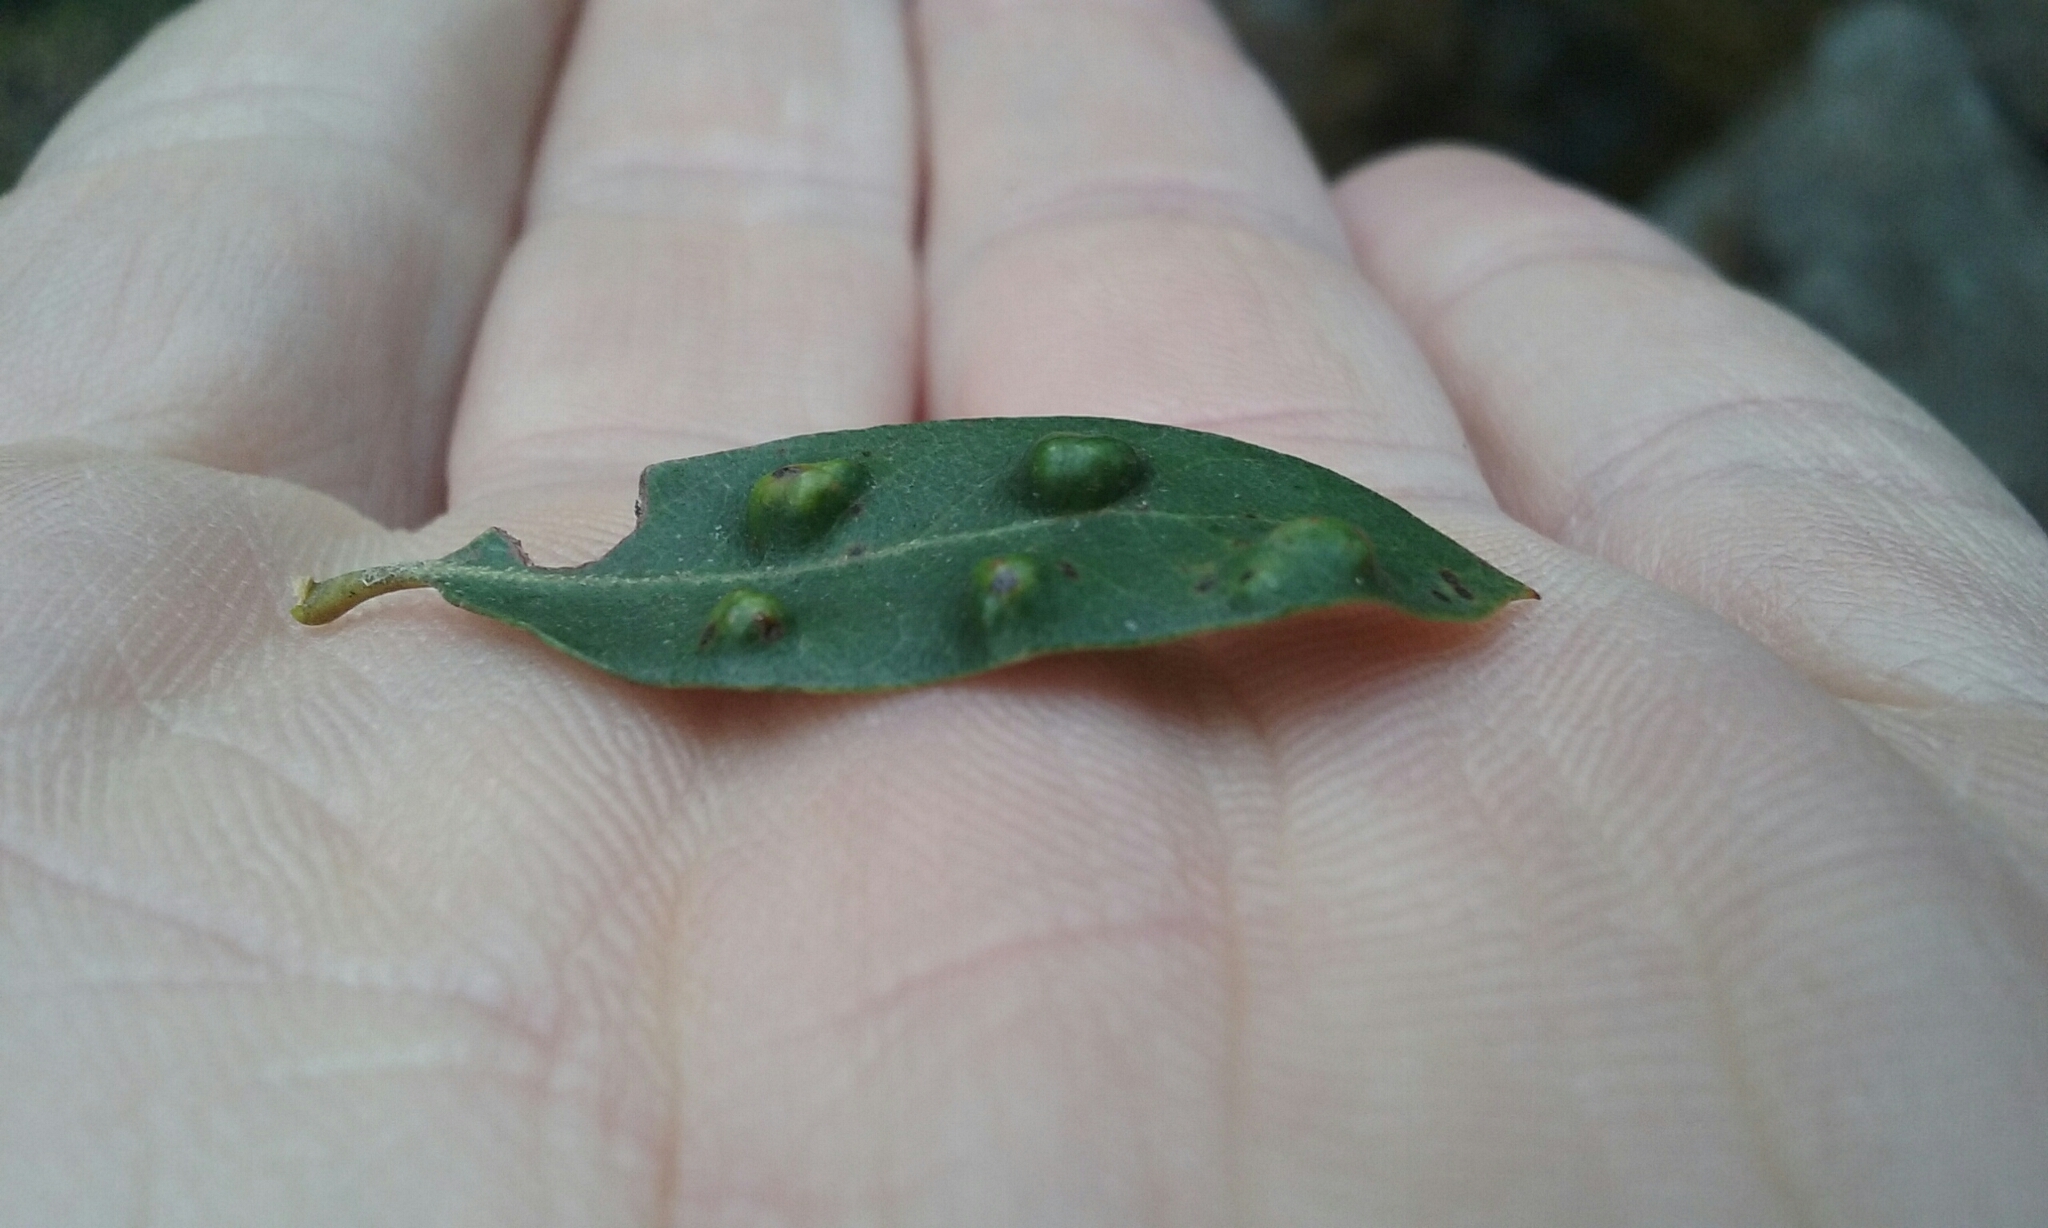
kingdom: Animalia
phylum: Arthropoda
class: Arachnida
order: Trombidiformes
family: Eriophyidae
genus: Aceria
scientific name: Aceria
